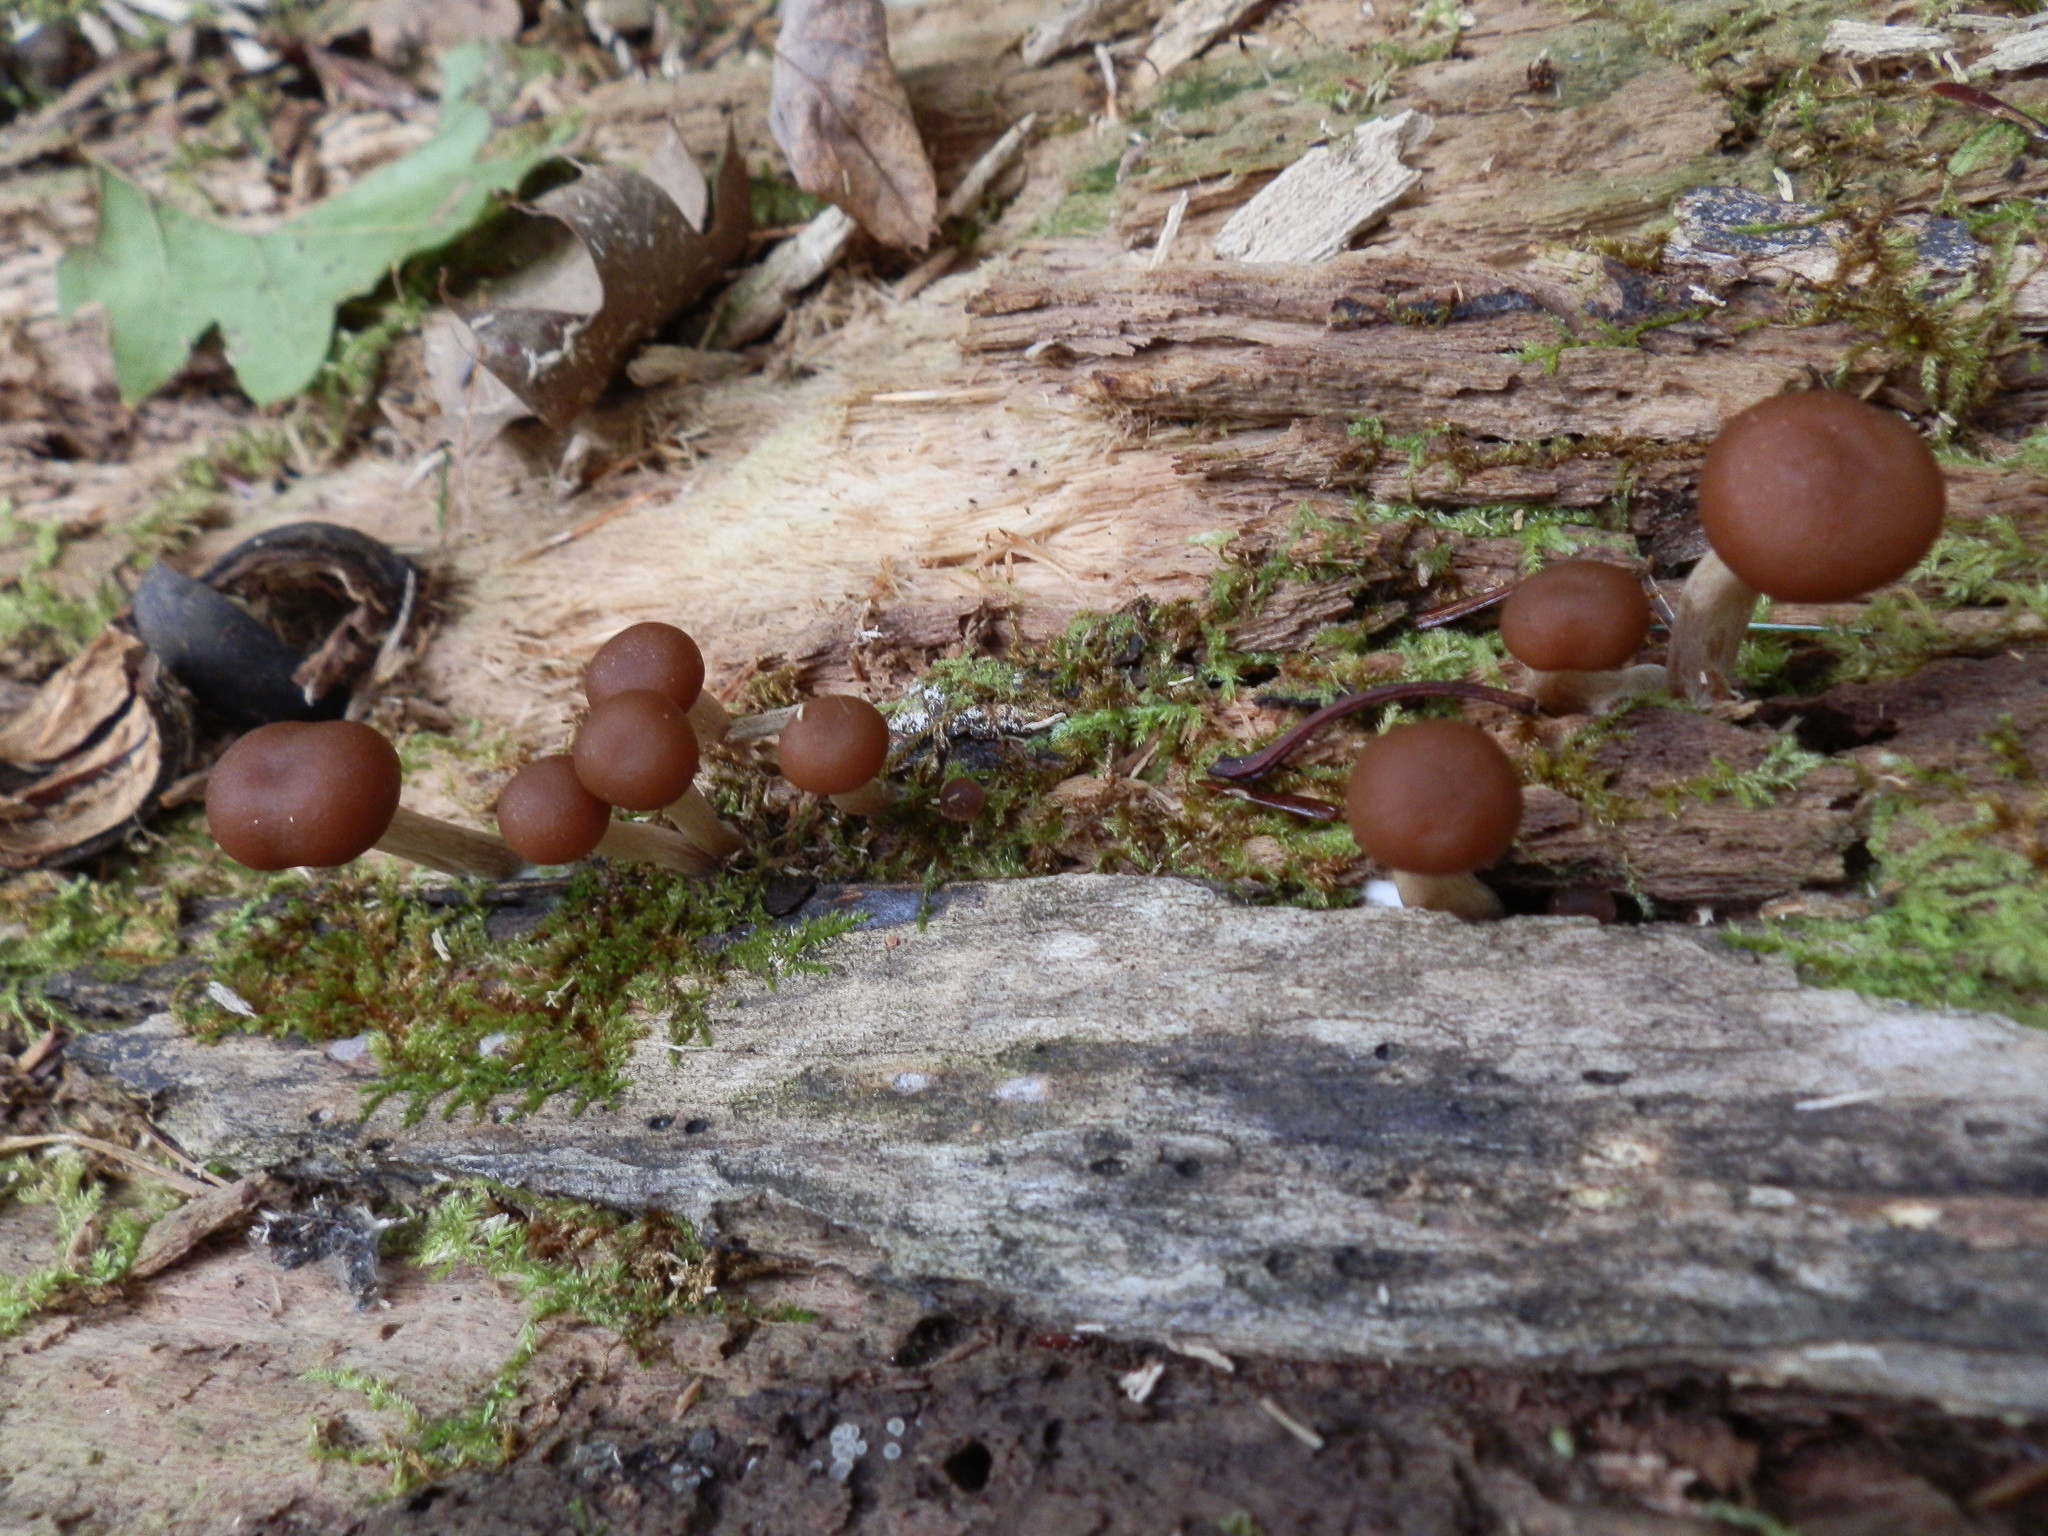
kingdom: Fungi
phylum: Basidiomycota
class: Agaricomycetes
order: Agaricales
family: Hymenogastraceae
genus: Galerina
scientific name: Galerina marginata
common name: Funeral bell
